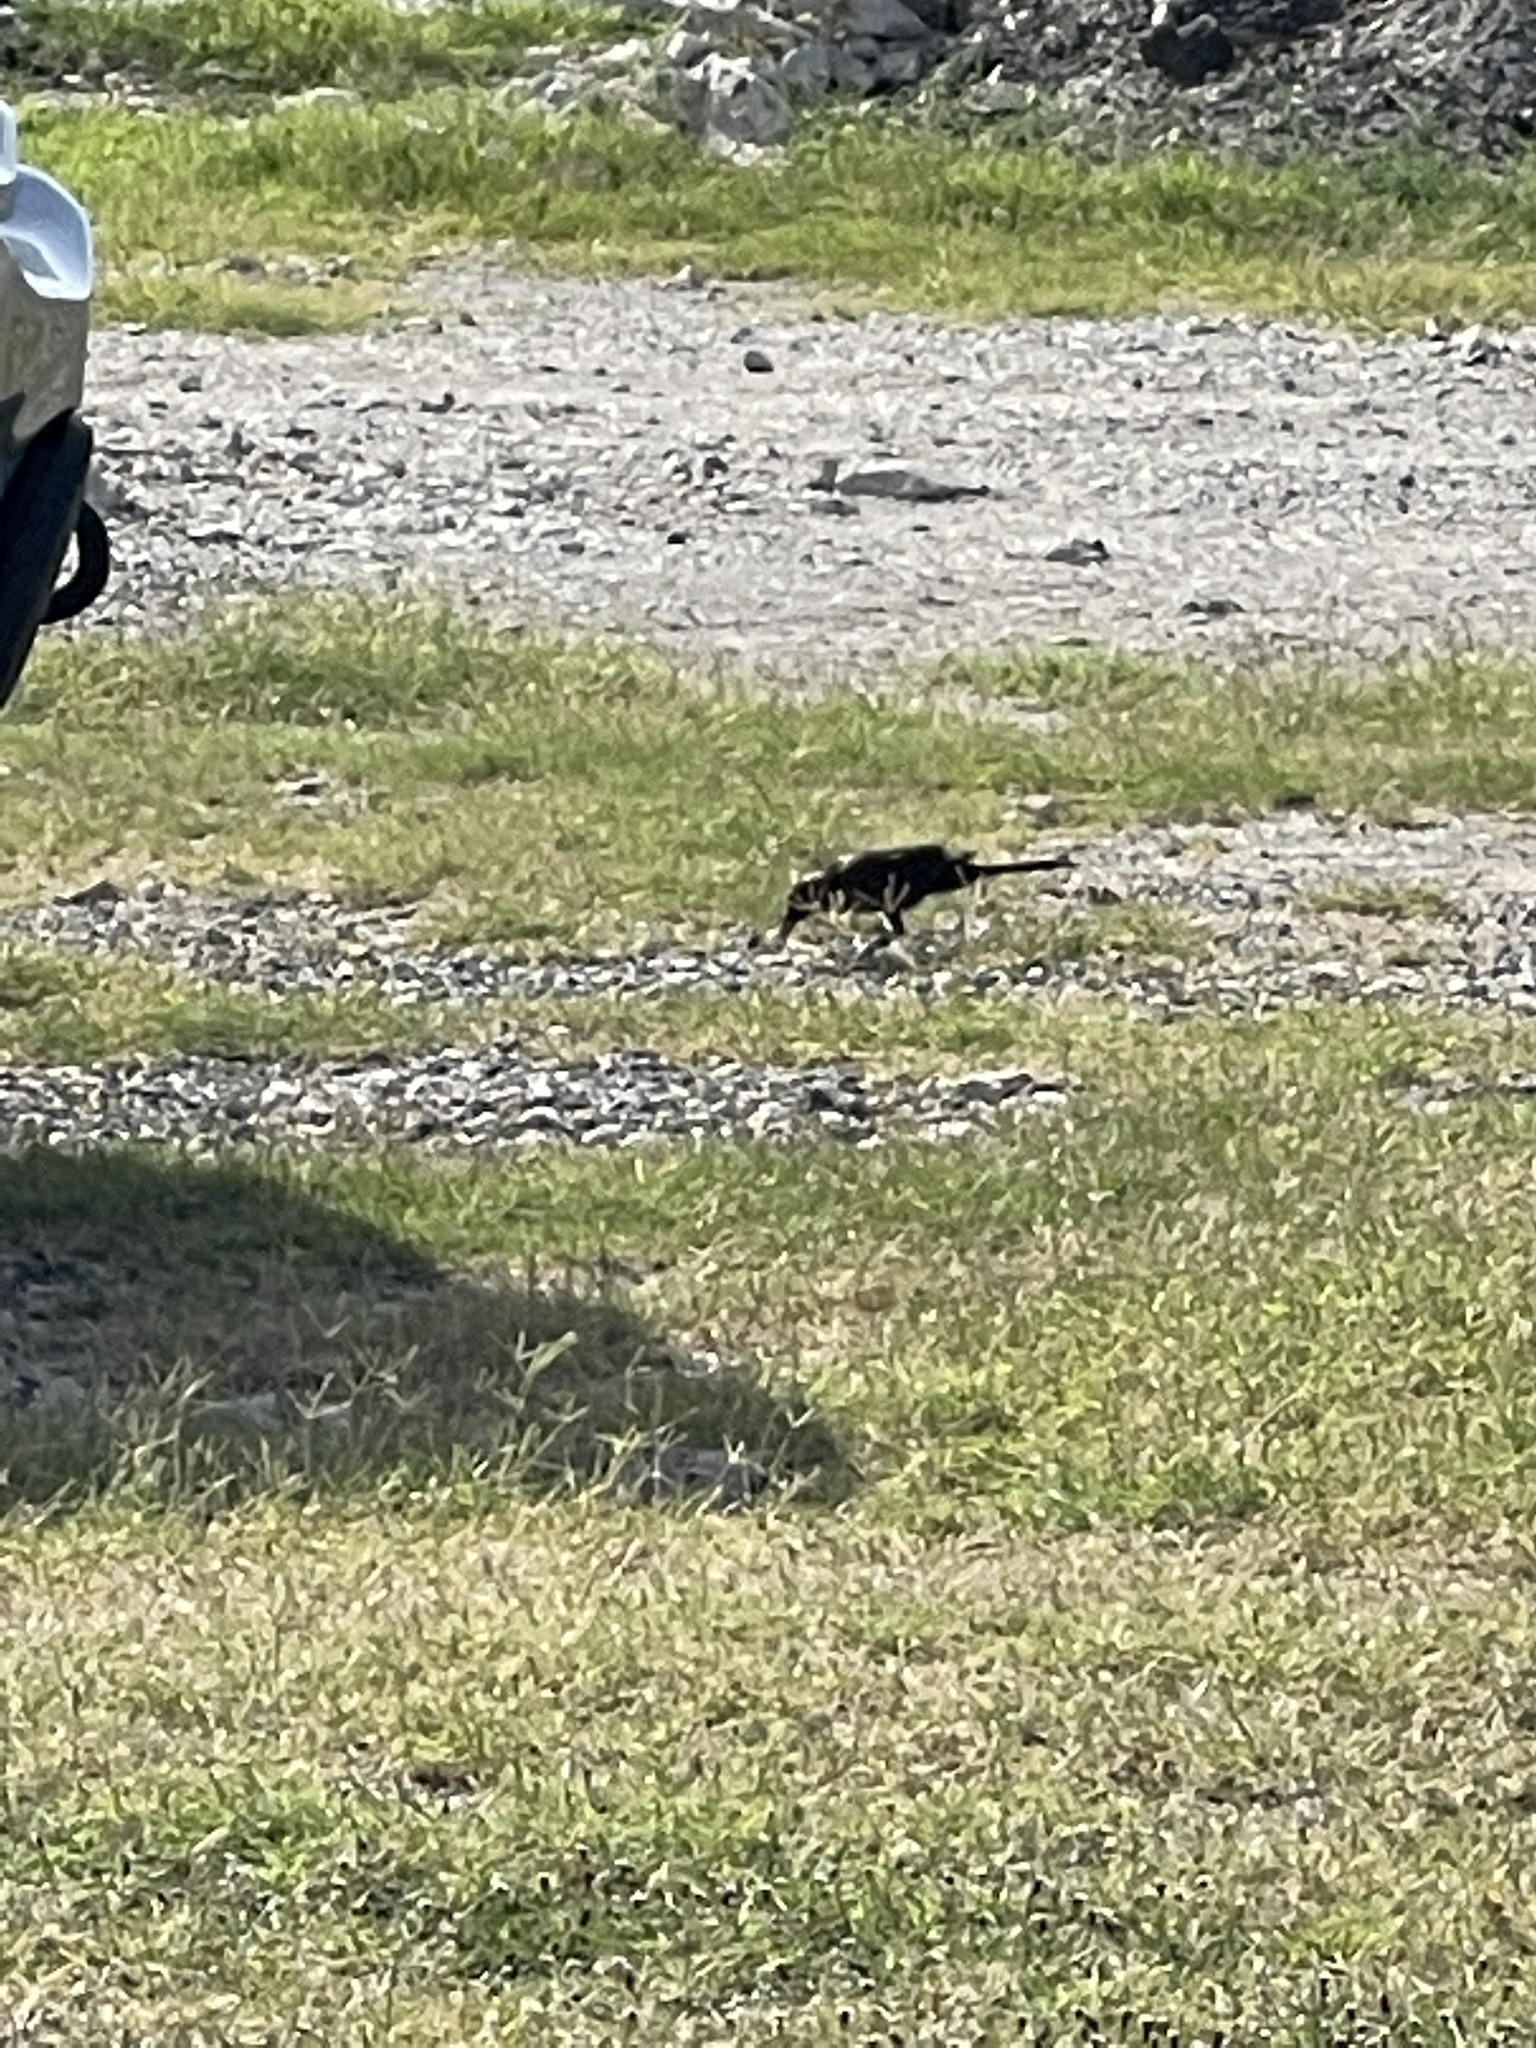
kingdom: Animalia
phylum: Chordata
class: Aves
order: Passeriformes
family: Icteridae
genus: Quiscalus
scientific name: Quiscalus mexicanus
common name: Great-tailed grackle
